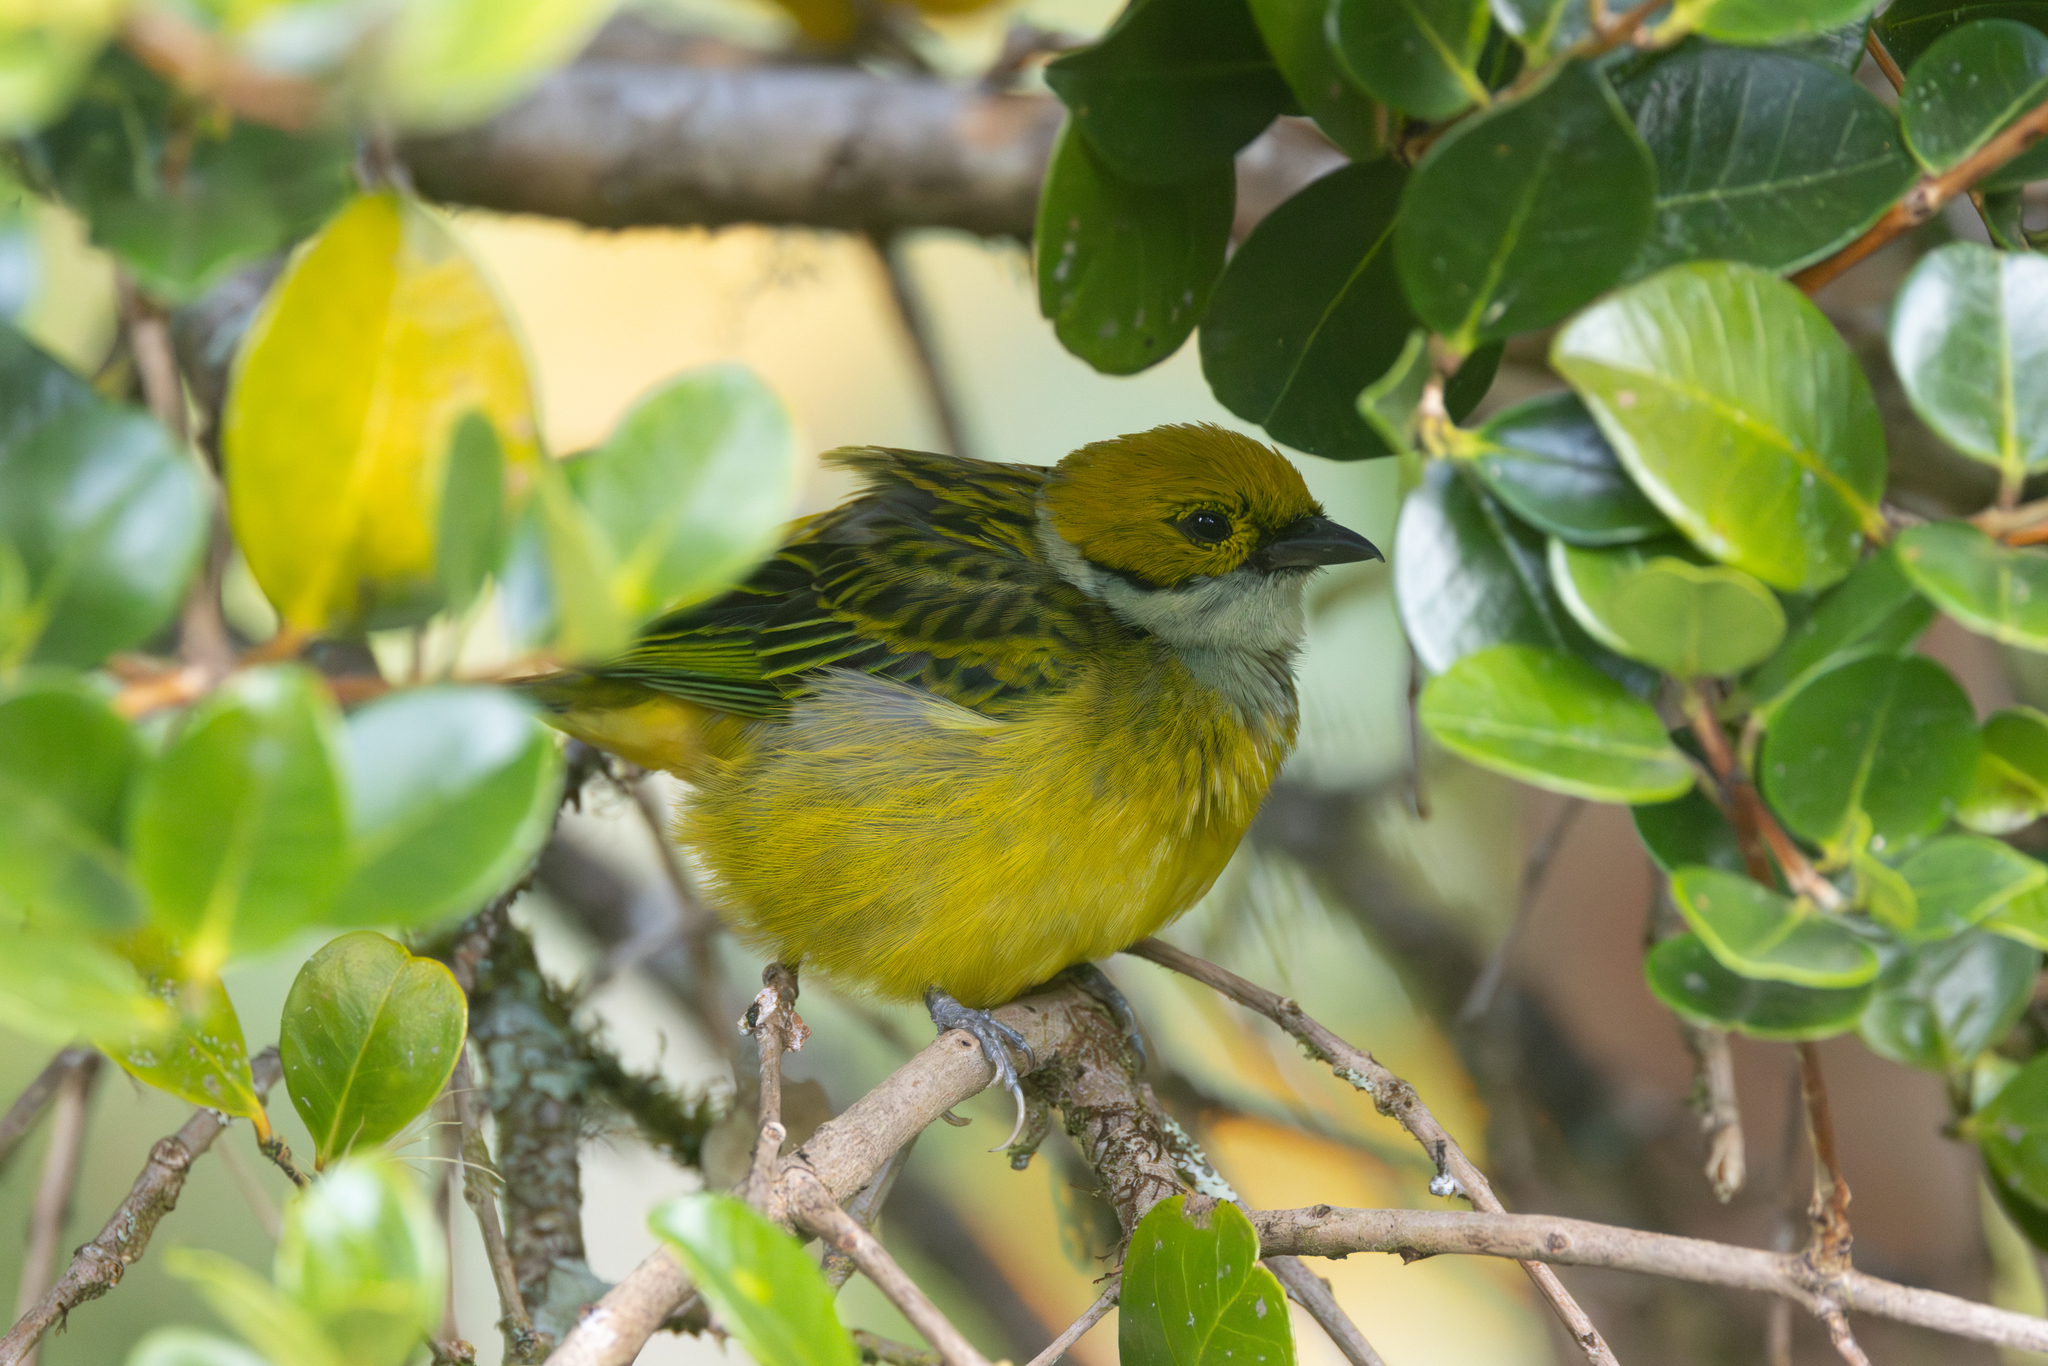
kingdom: Animalia
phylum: Chordata
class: Aves
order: Passeriformes
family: Thraupidae
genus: Tangara
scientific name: Tangara icterocephala
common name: Silver-throated tanager
